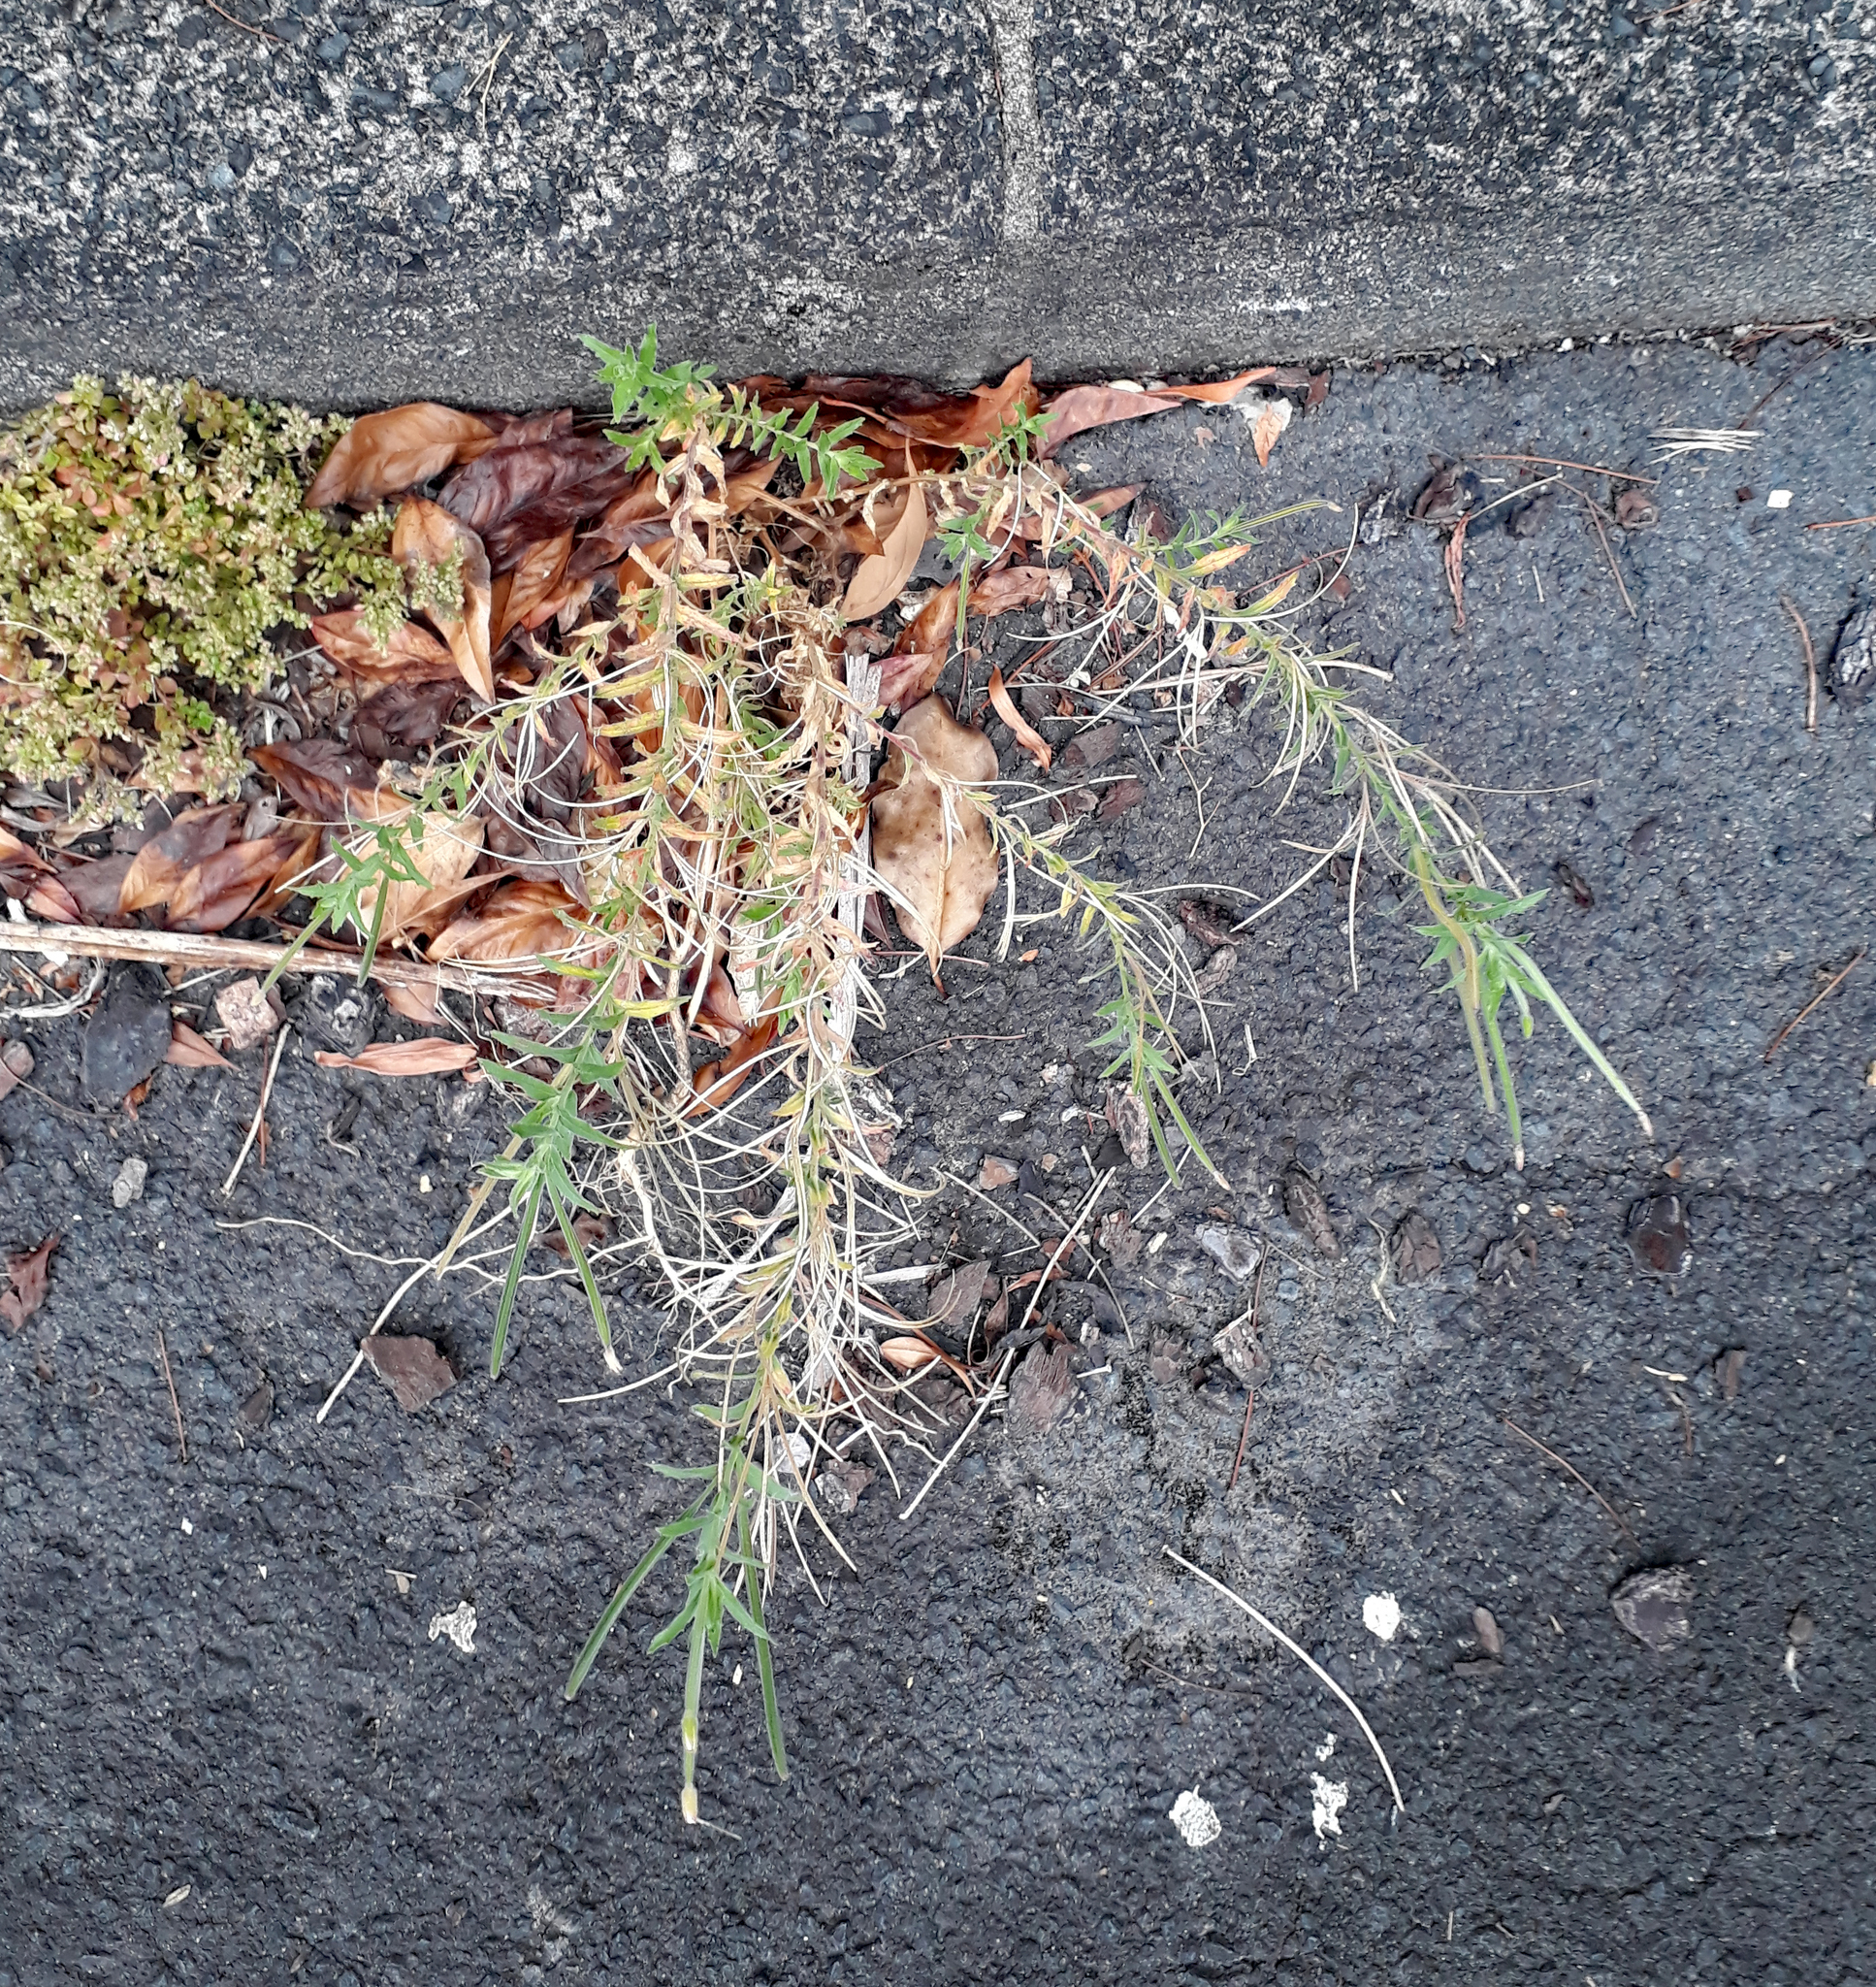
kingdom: Plantae
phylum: Tracheophyta
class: Magnoliopsida
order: Myrtales
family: Onagraceae
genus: Epilobium
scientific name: Epilobium hirtigerum
